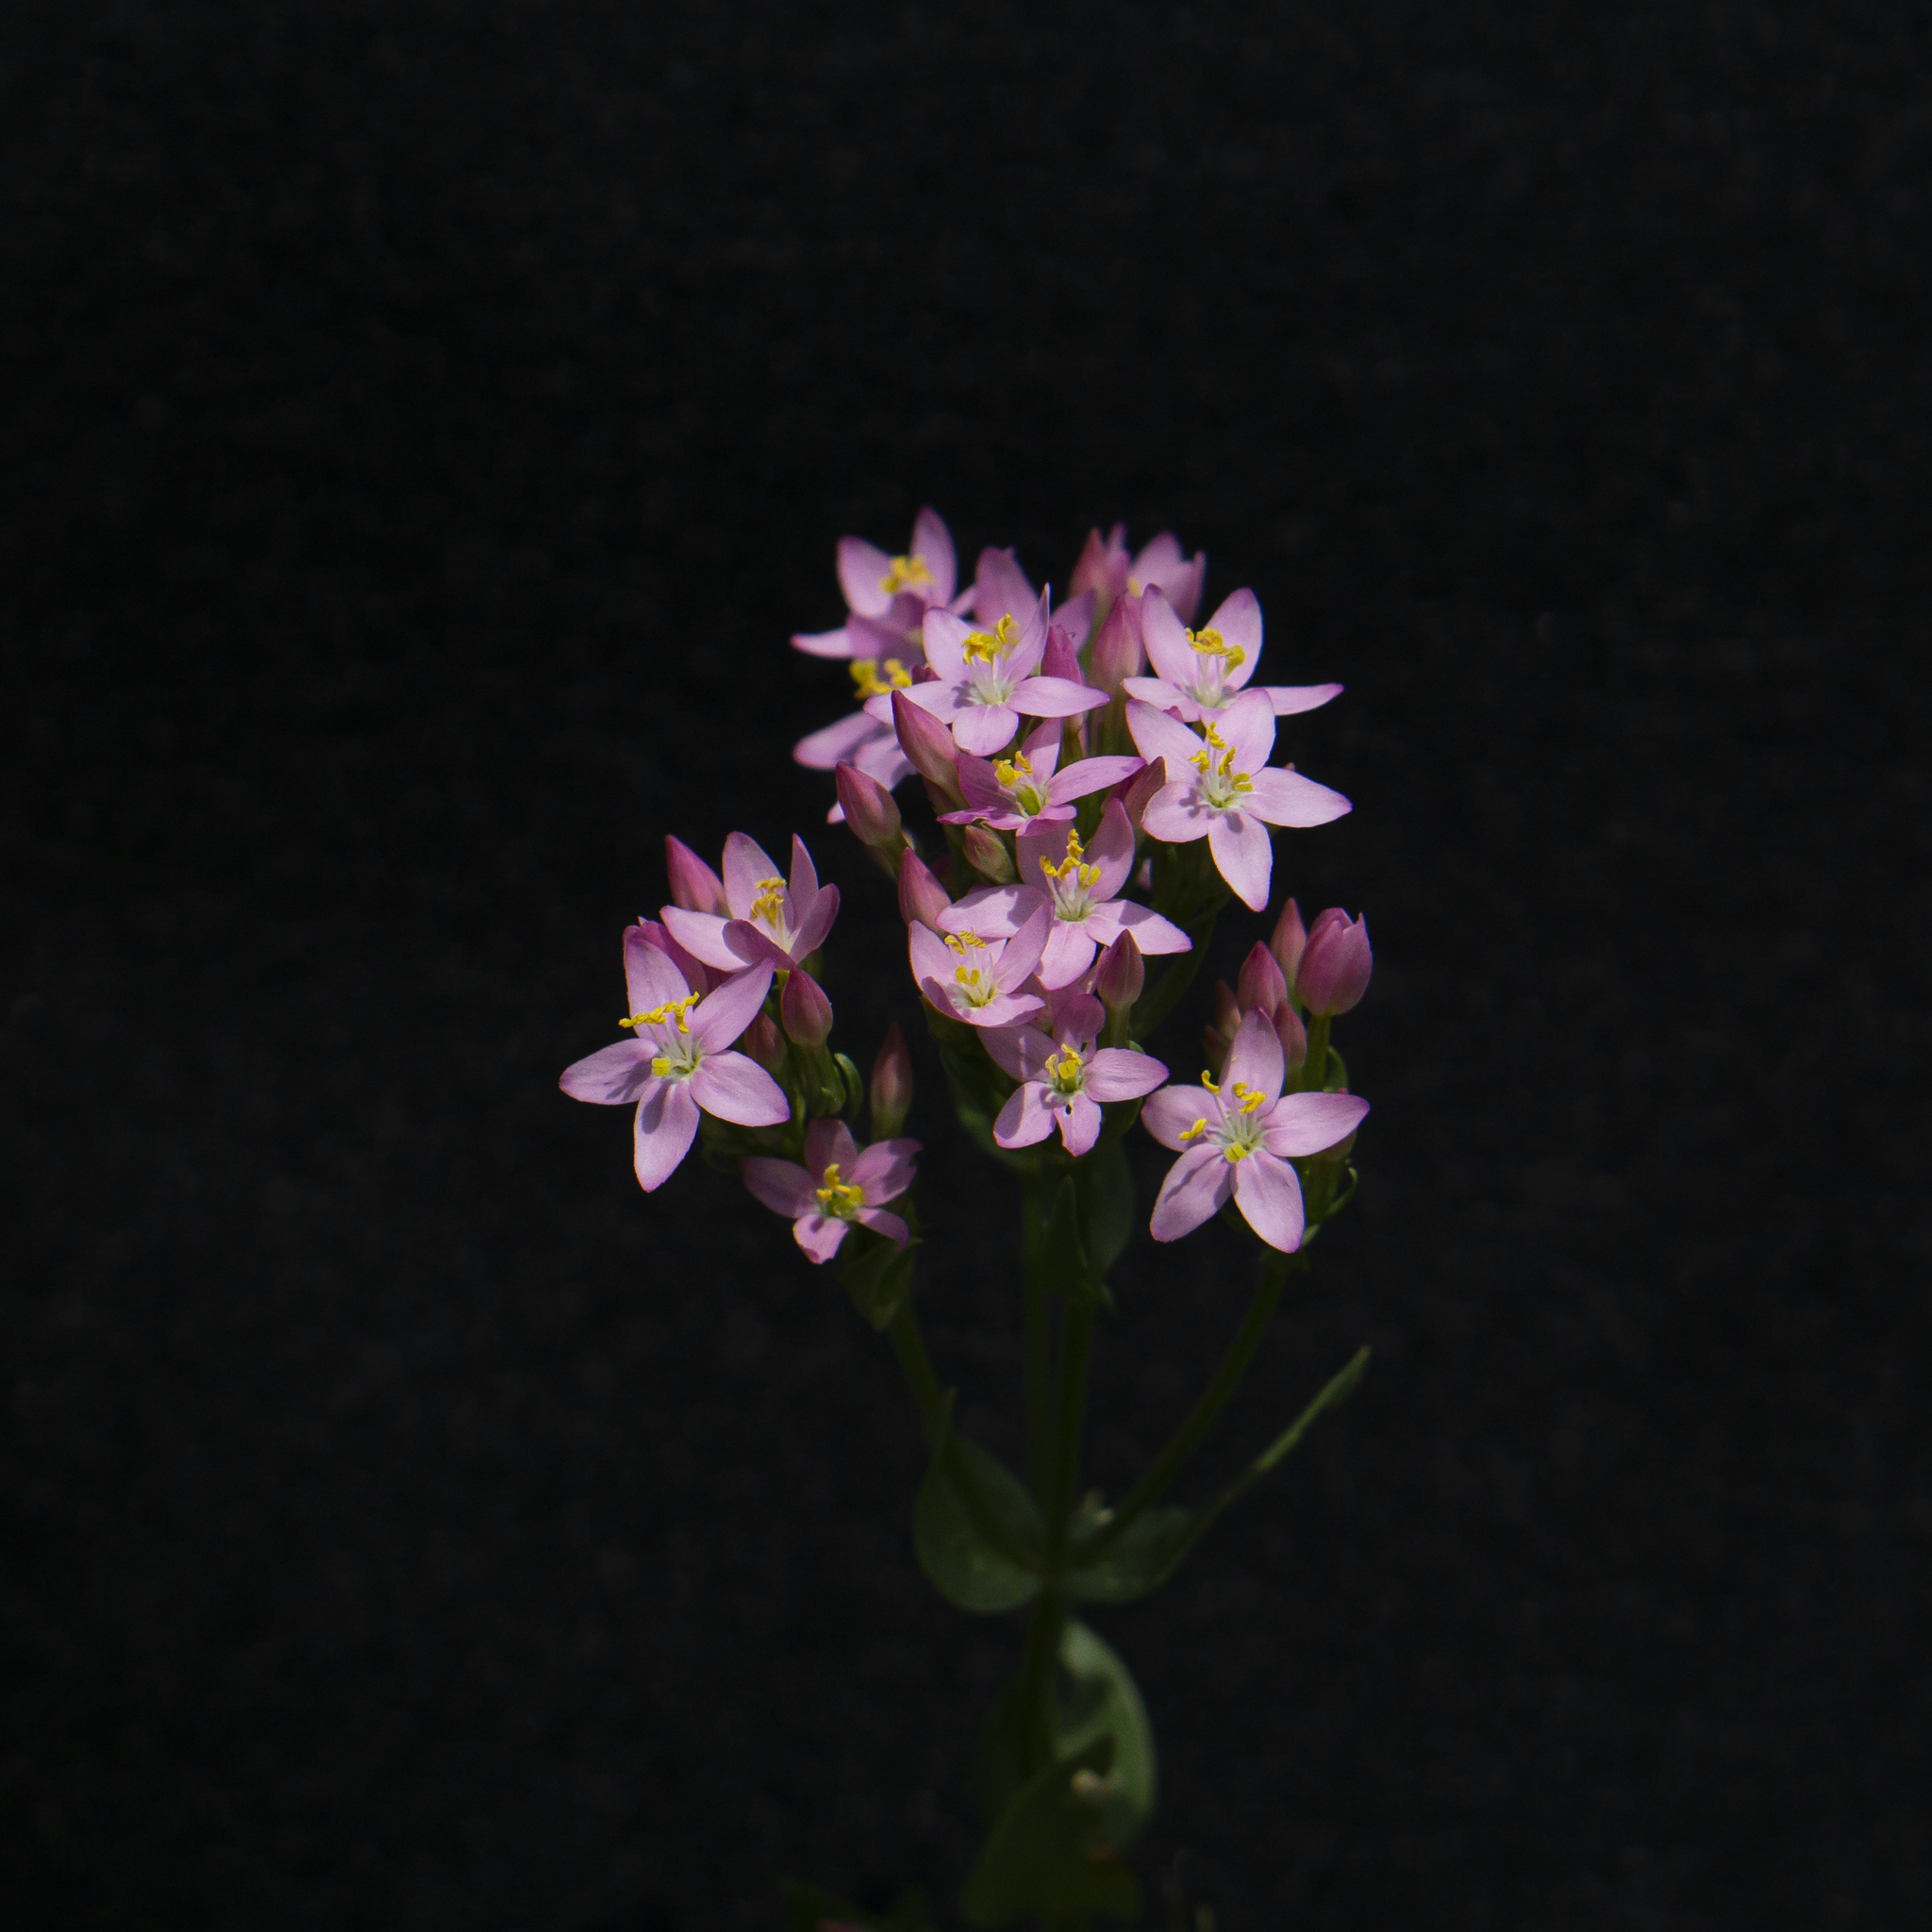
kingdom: Plantae
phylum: Tracheophyta
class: Magnoliopsida
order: Gentianales
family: Gentianaceae
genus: Centaurium
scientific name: Centaurium erythraea
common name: Common centaury
